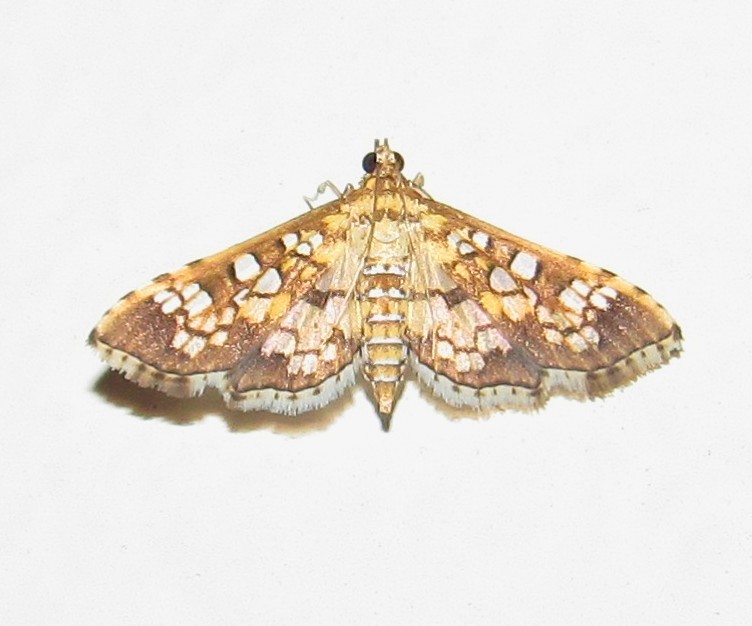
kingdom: Animalia
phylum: Arthropoda
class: Insecta
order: Lepidoptera
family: Crambidae
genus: Samea
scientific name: Samea ecclesialis
